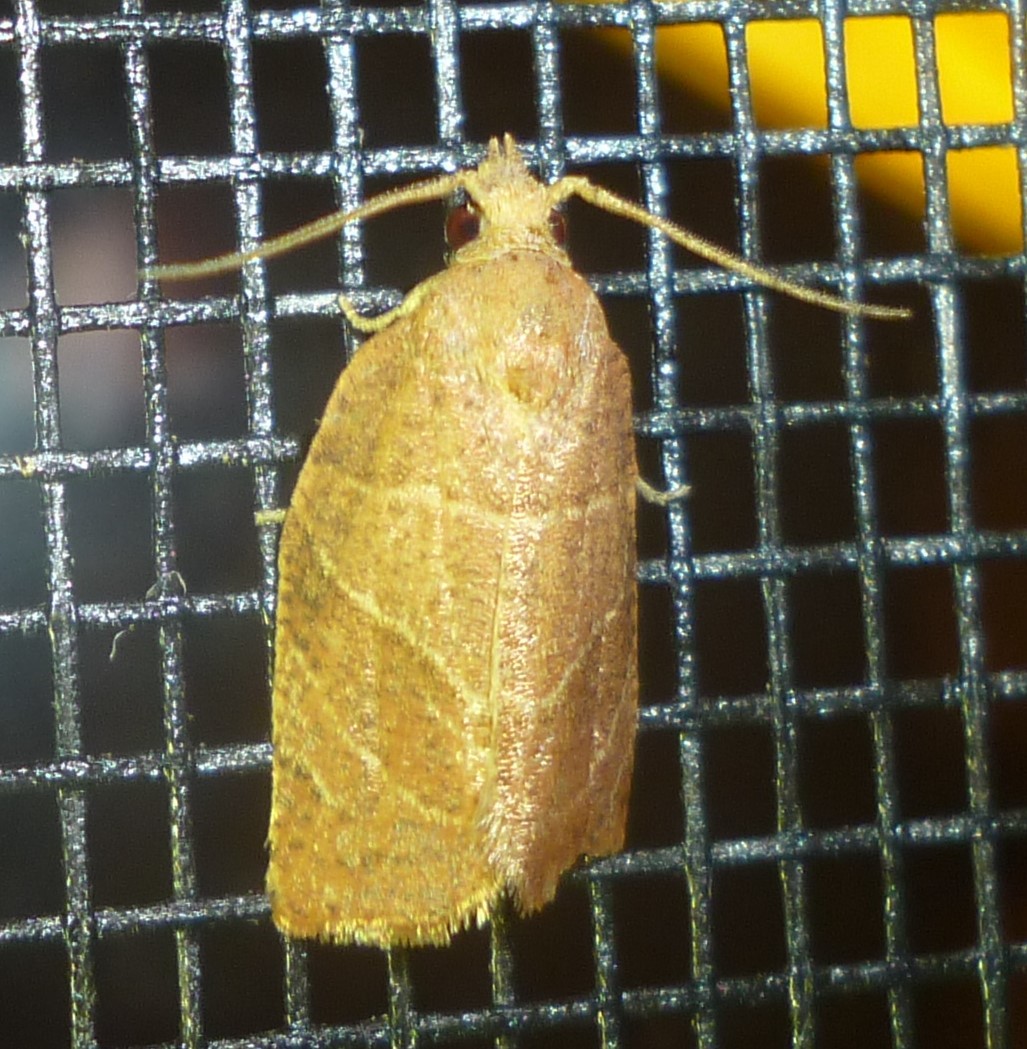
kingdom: Animalia
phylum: Arthropoda
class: Insecta
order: Lepidoptera
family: Tortricidae
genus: Pandemis
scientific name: Pandemis limitata
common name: Three-lined leafroller moth
